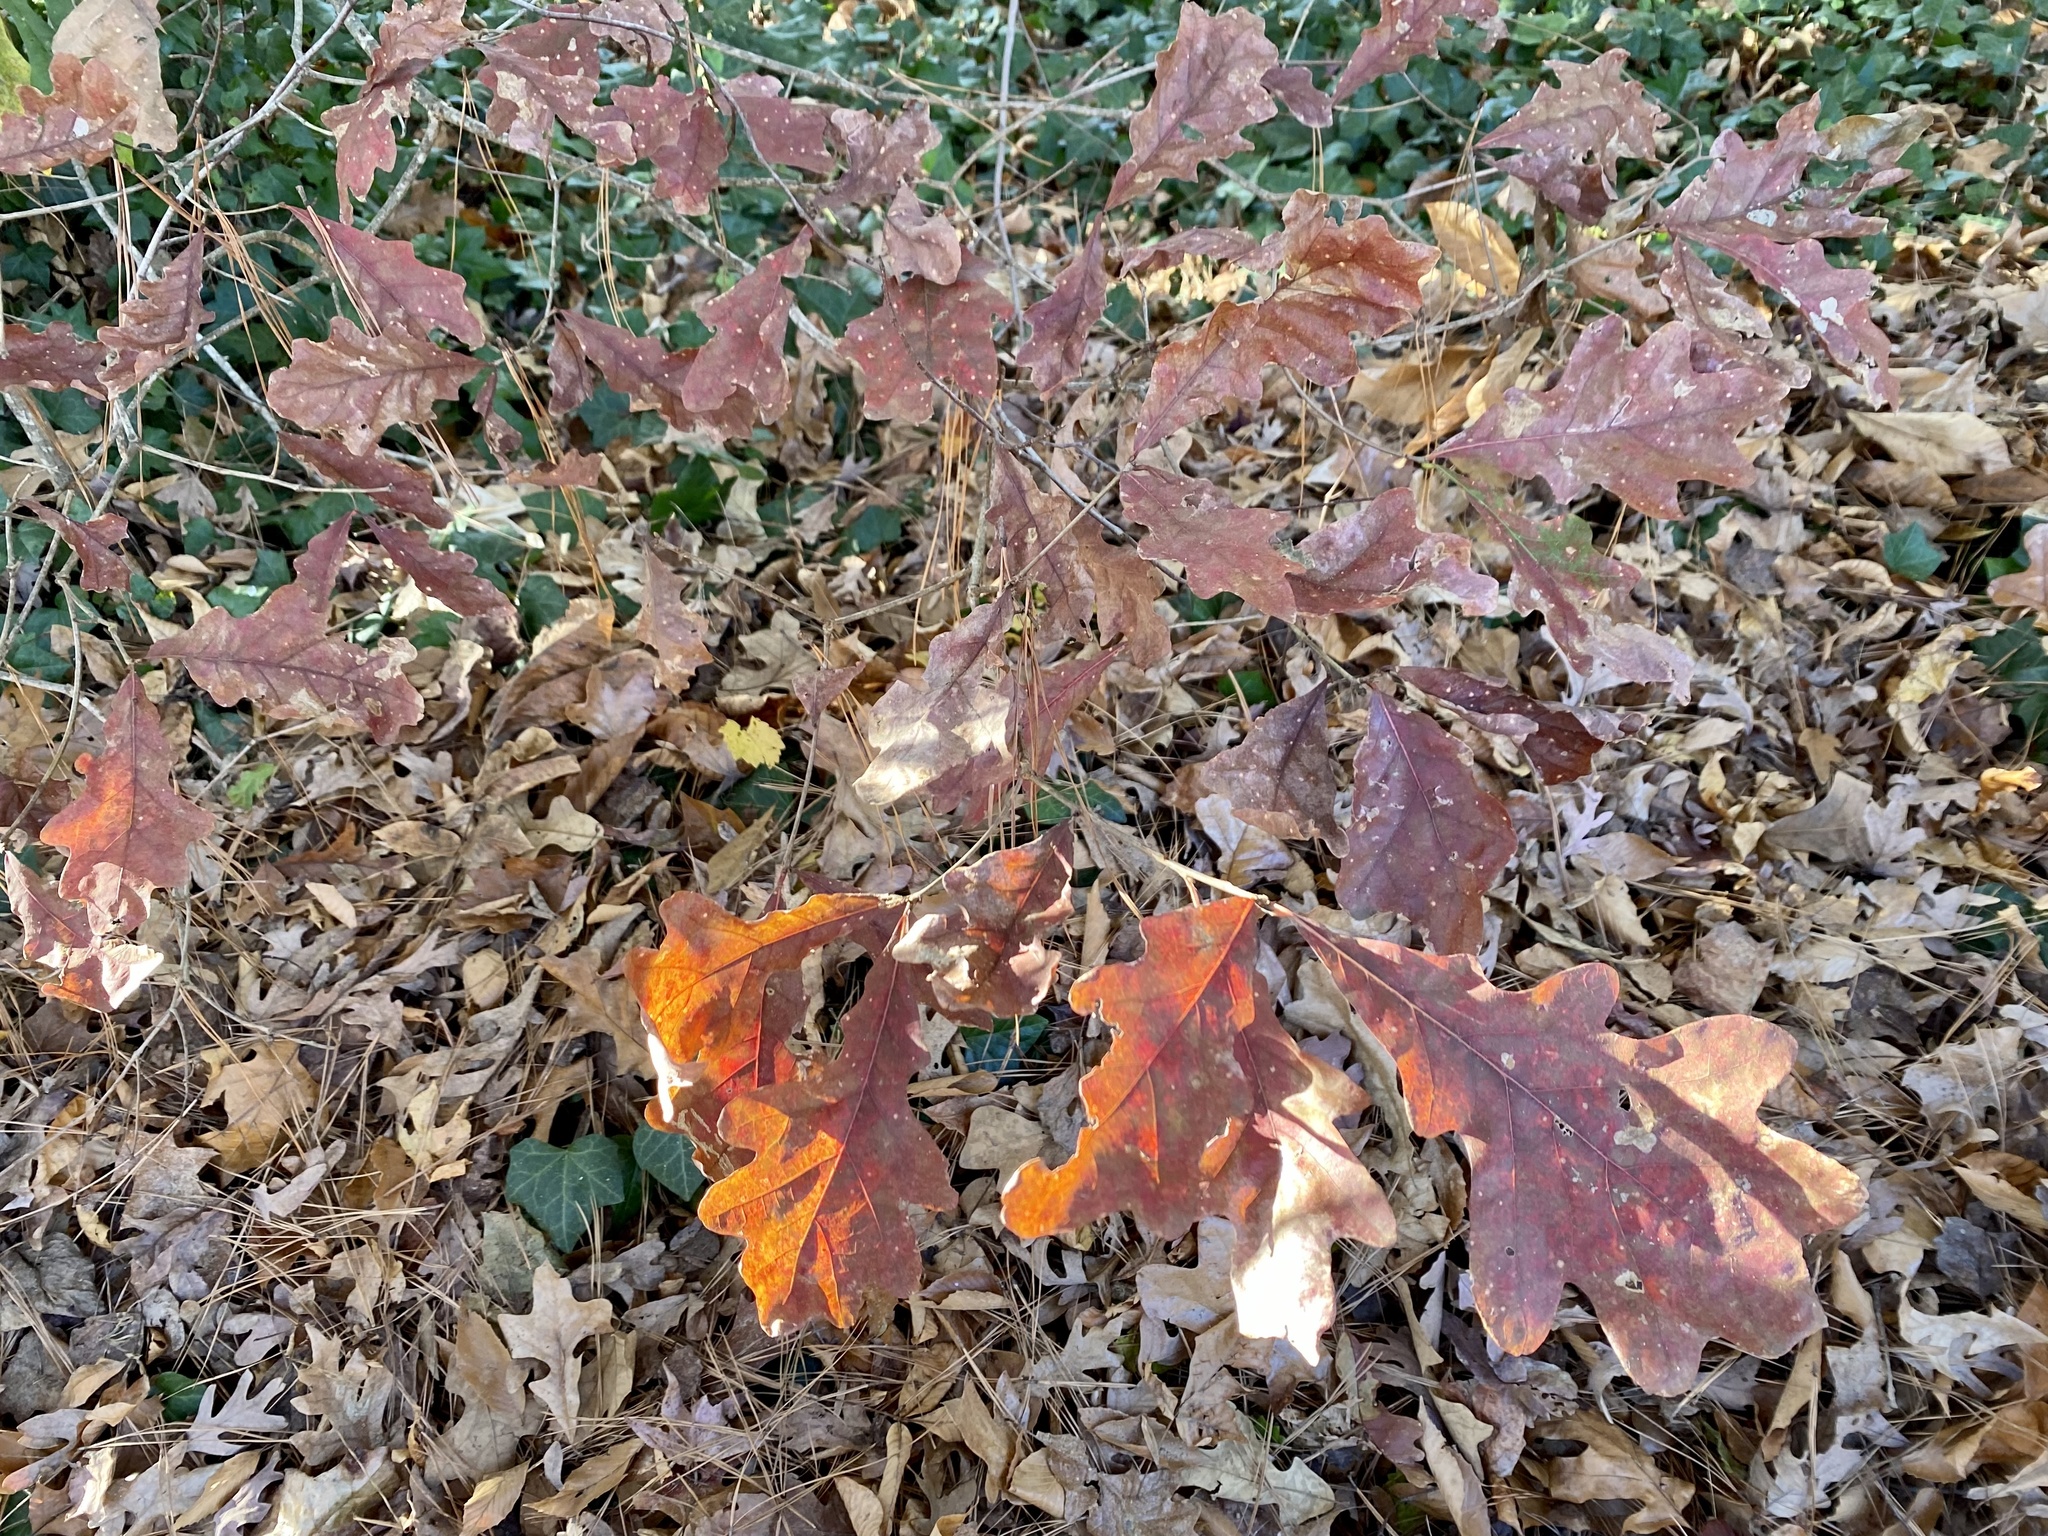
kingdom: Plantae
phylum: Tracheophyta
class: Magnoliopsida
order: Fagales
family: Fagaceae
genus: Quercus
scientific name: Quercus alba
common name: White oak
